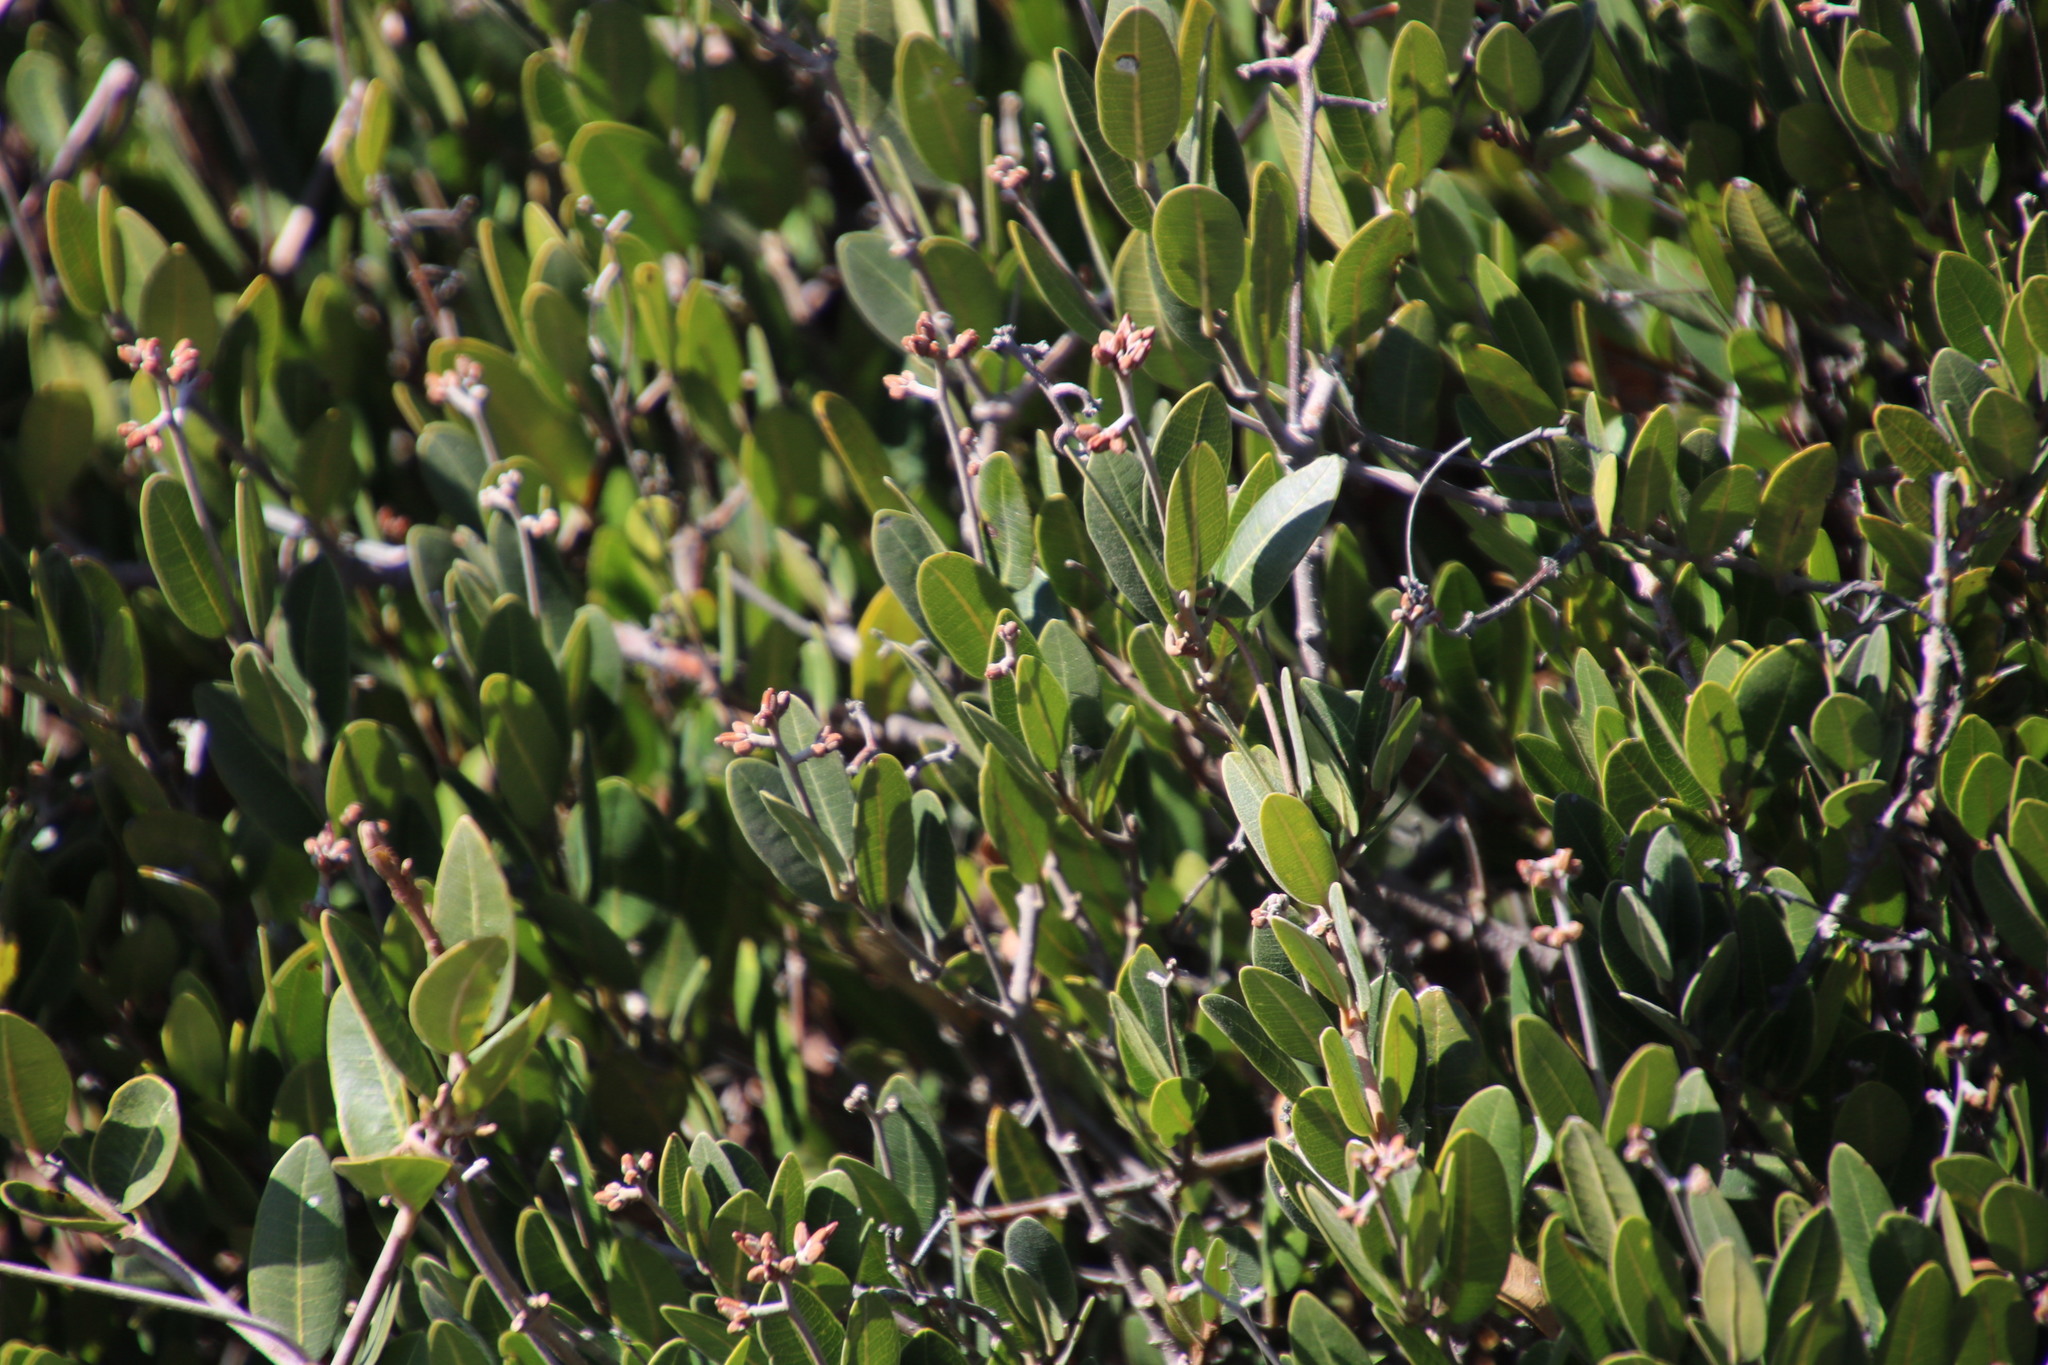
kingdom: Plantae
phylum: Tracheophyta
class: Magnoliopsida
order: Gentianales
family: Apocynaceae
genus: Ancylobothrys
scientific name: Ancylobothrys capensis
